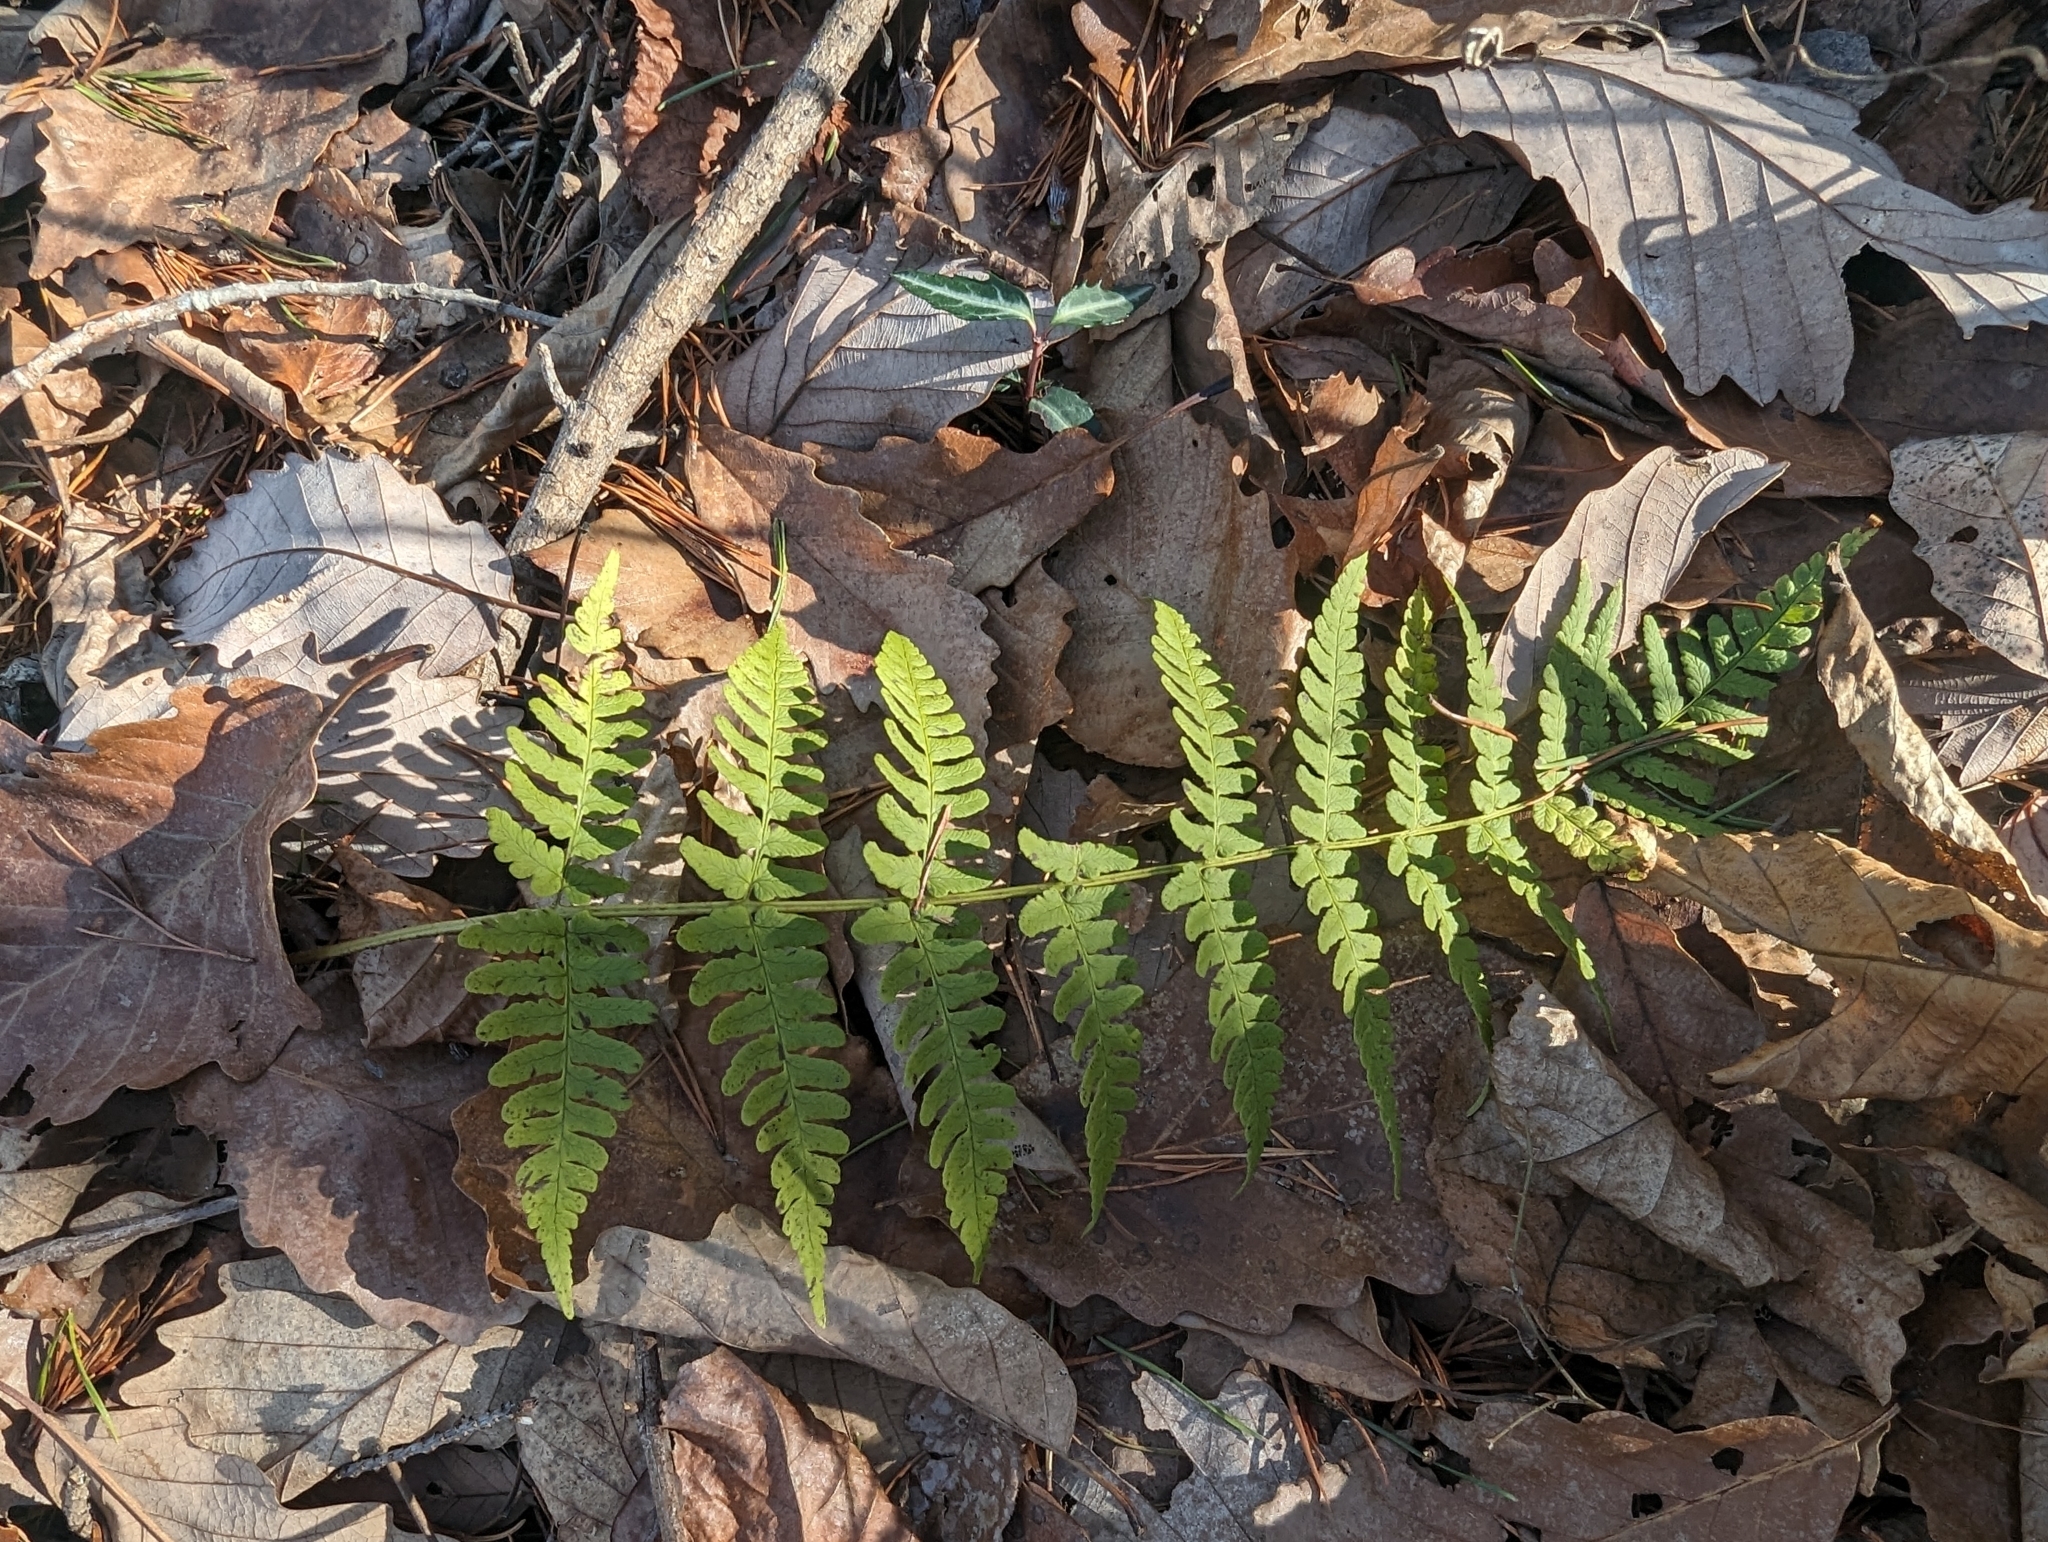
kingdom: Plantae
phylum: Tracheophyta
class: Polypodiopsida
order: Polypodiales
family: Dryopteridaceae
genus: Dryopteris
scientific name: Dryopteris marginalis
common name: Marginal wood fern
